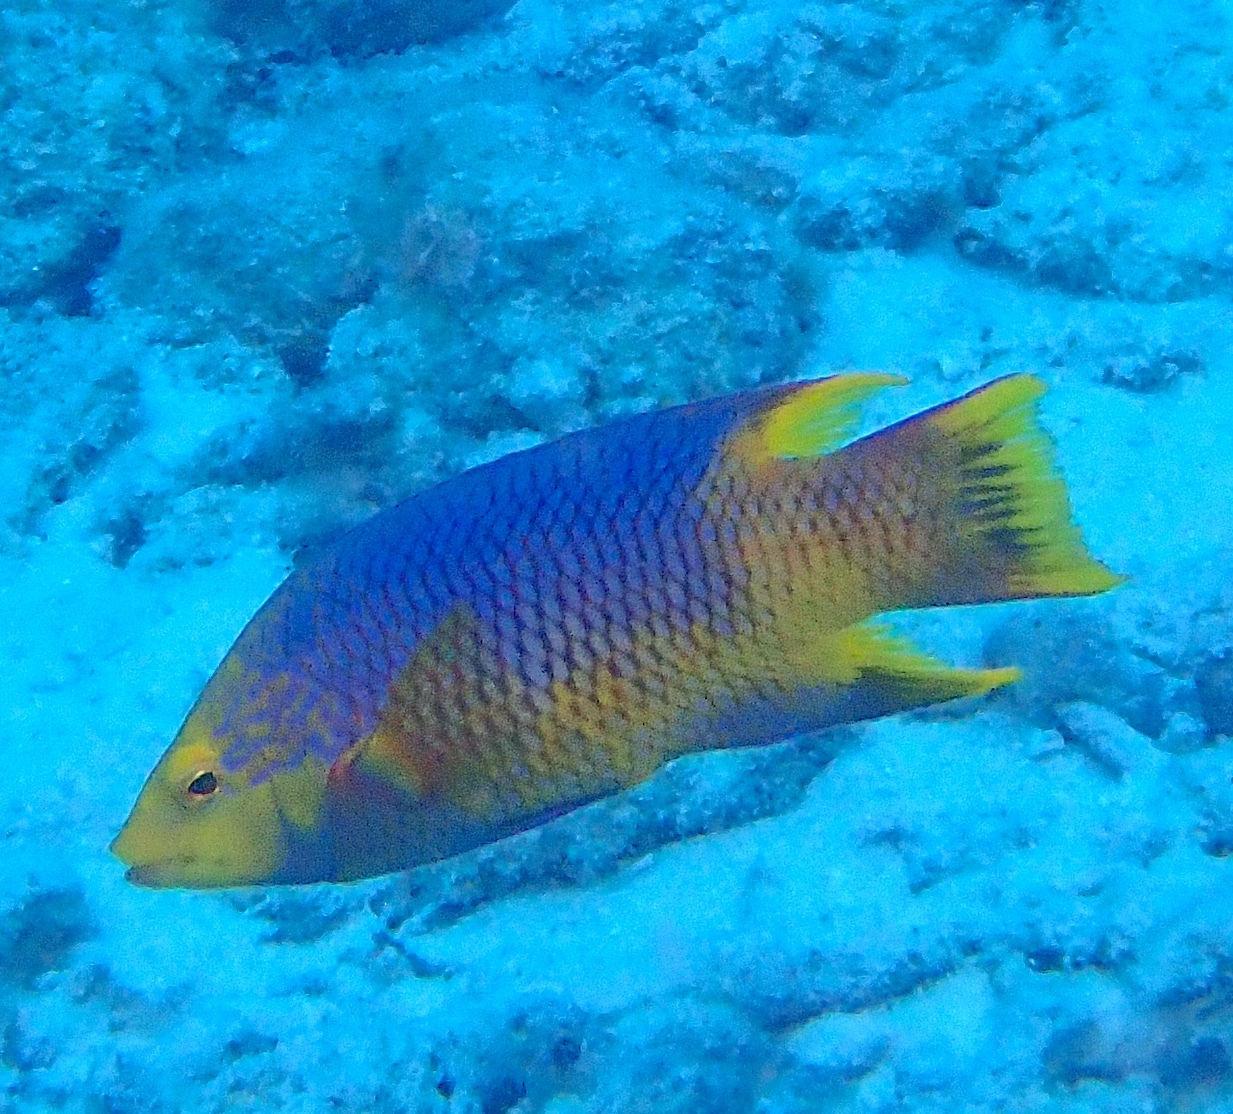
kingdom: Animalia
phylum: Chordata
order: Perciformes
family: Labridae
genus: Bodianus
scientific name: Bodianus rufus
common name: Spanish hogfish
